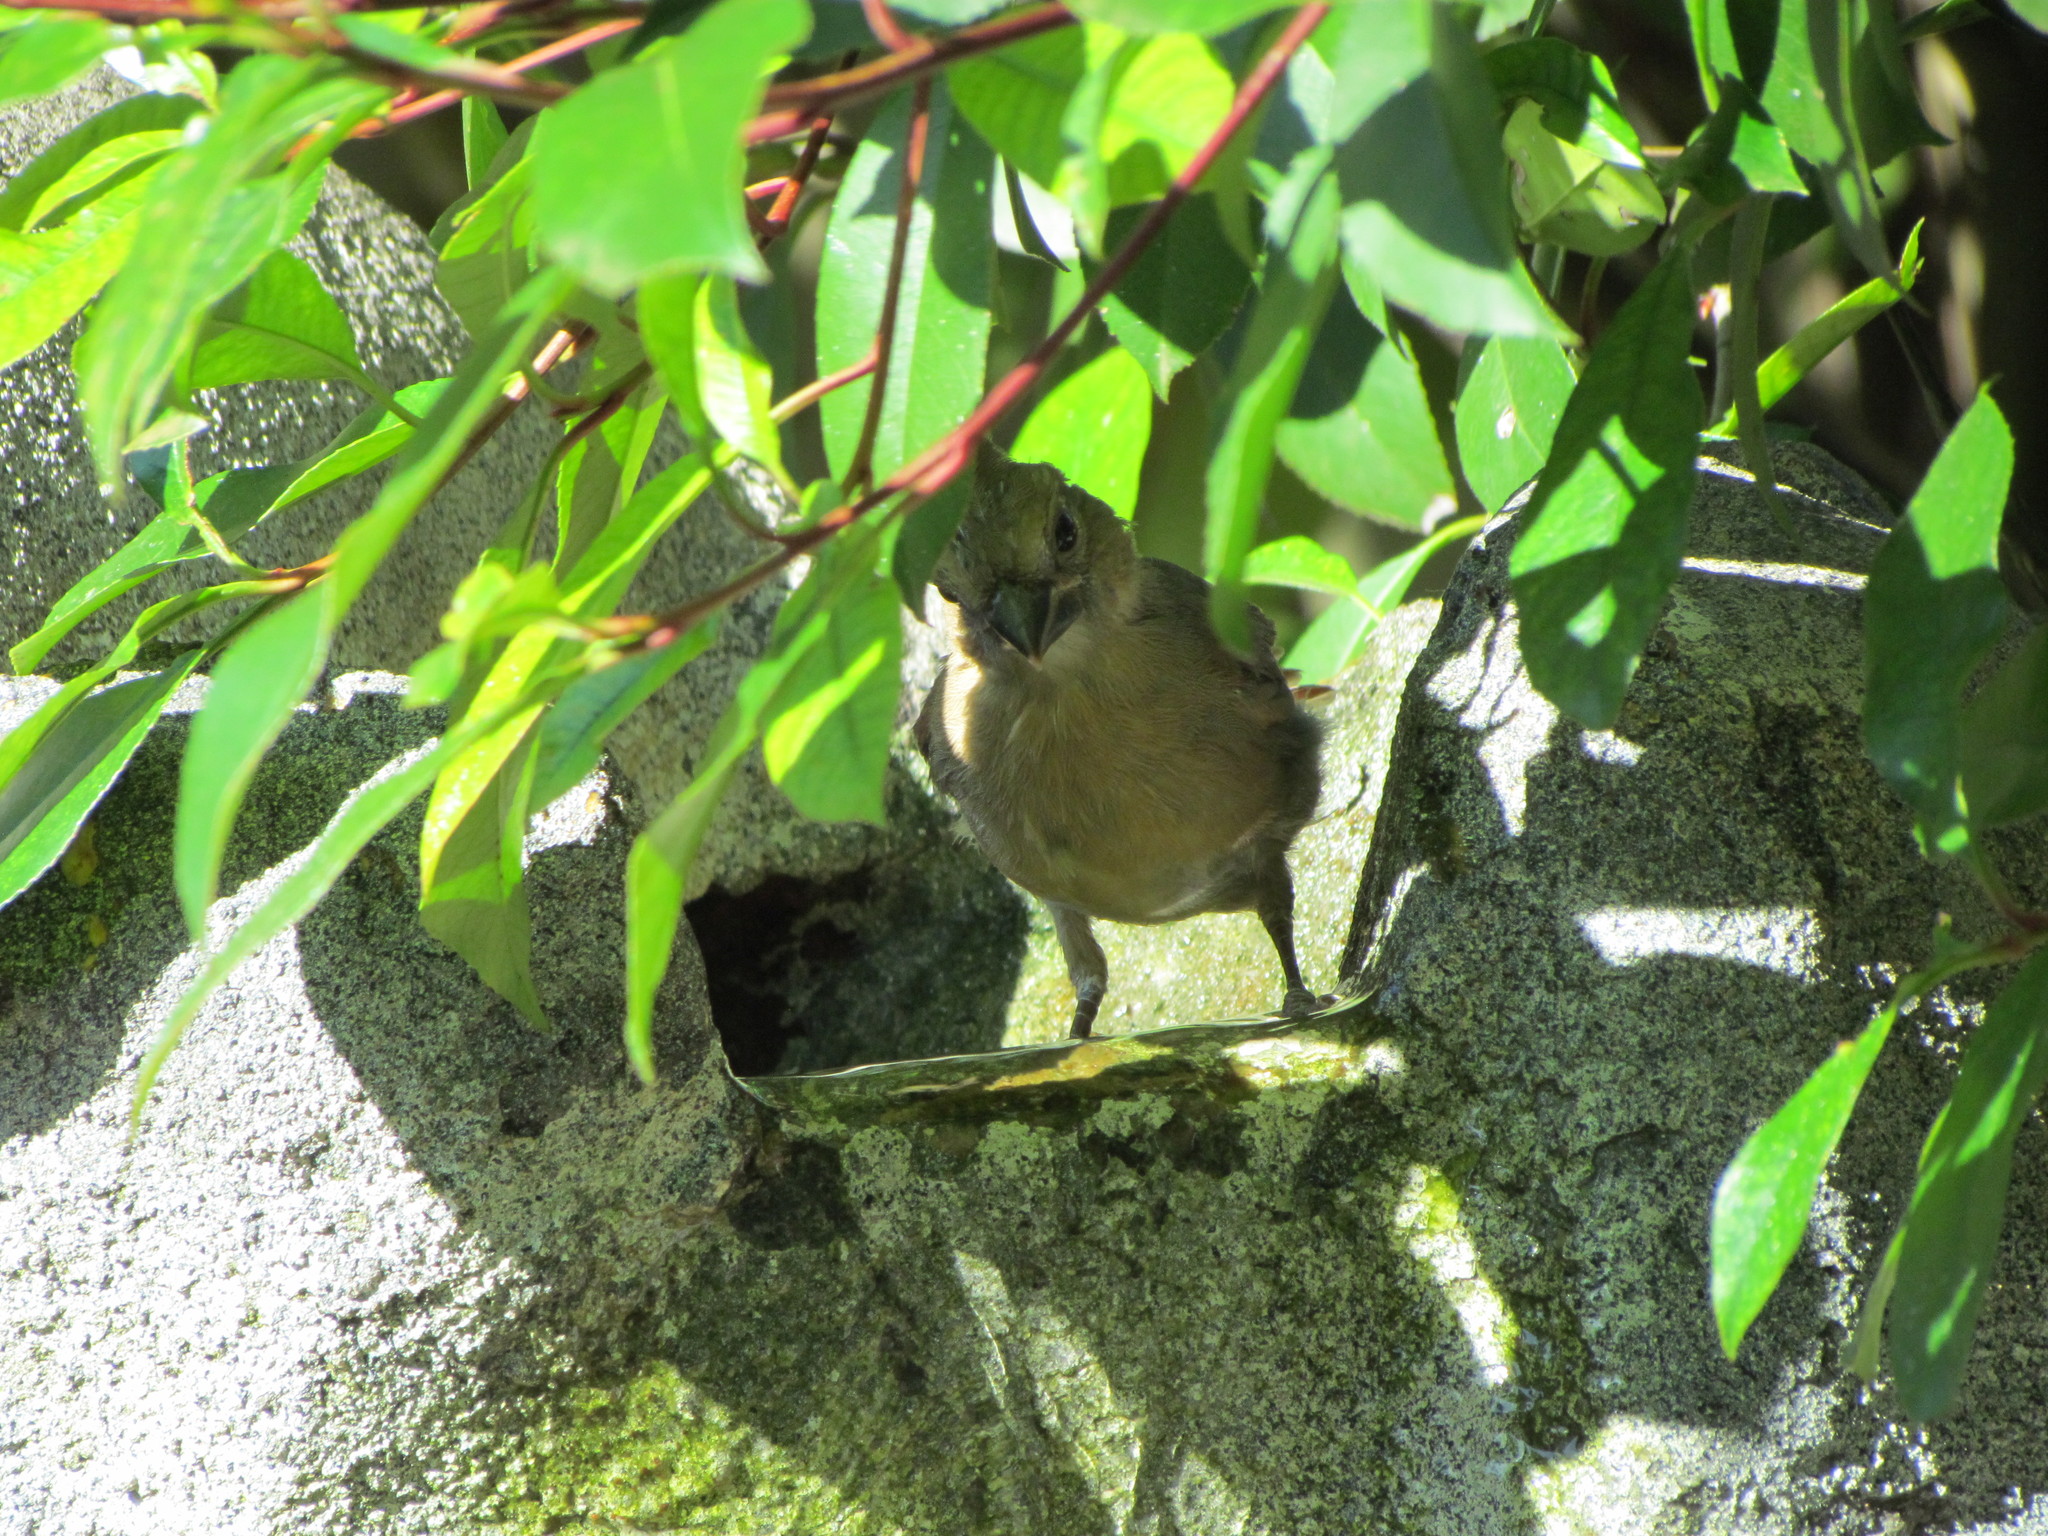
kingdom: Animalia
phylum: Chordata
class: Aves
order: Passeriformes
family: Cardinalidae
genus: Cardinalis
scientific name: Cardinalis cardinalis
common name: Northern cardinal
